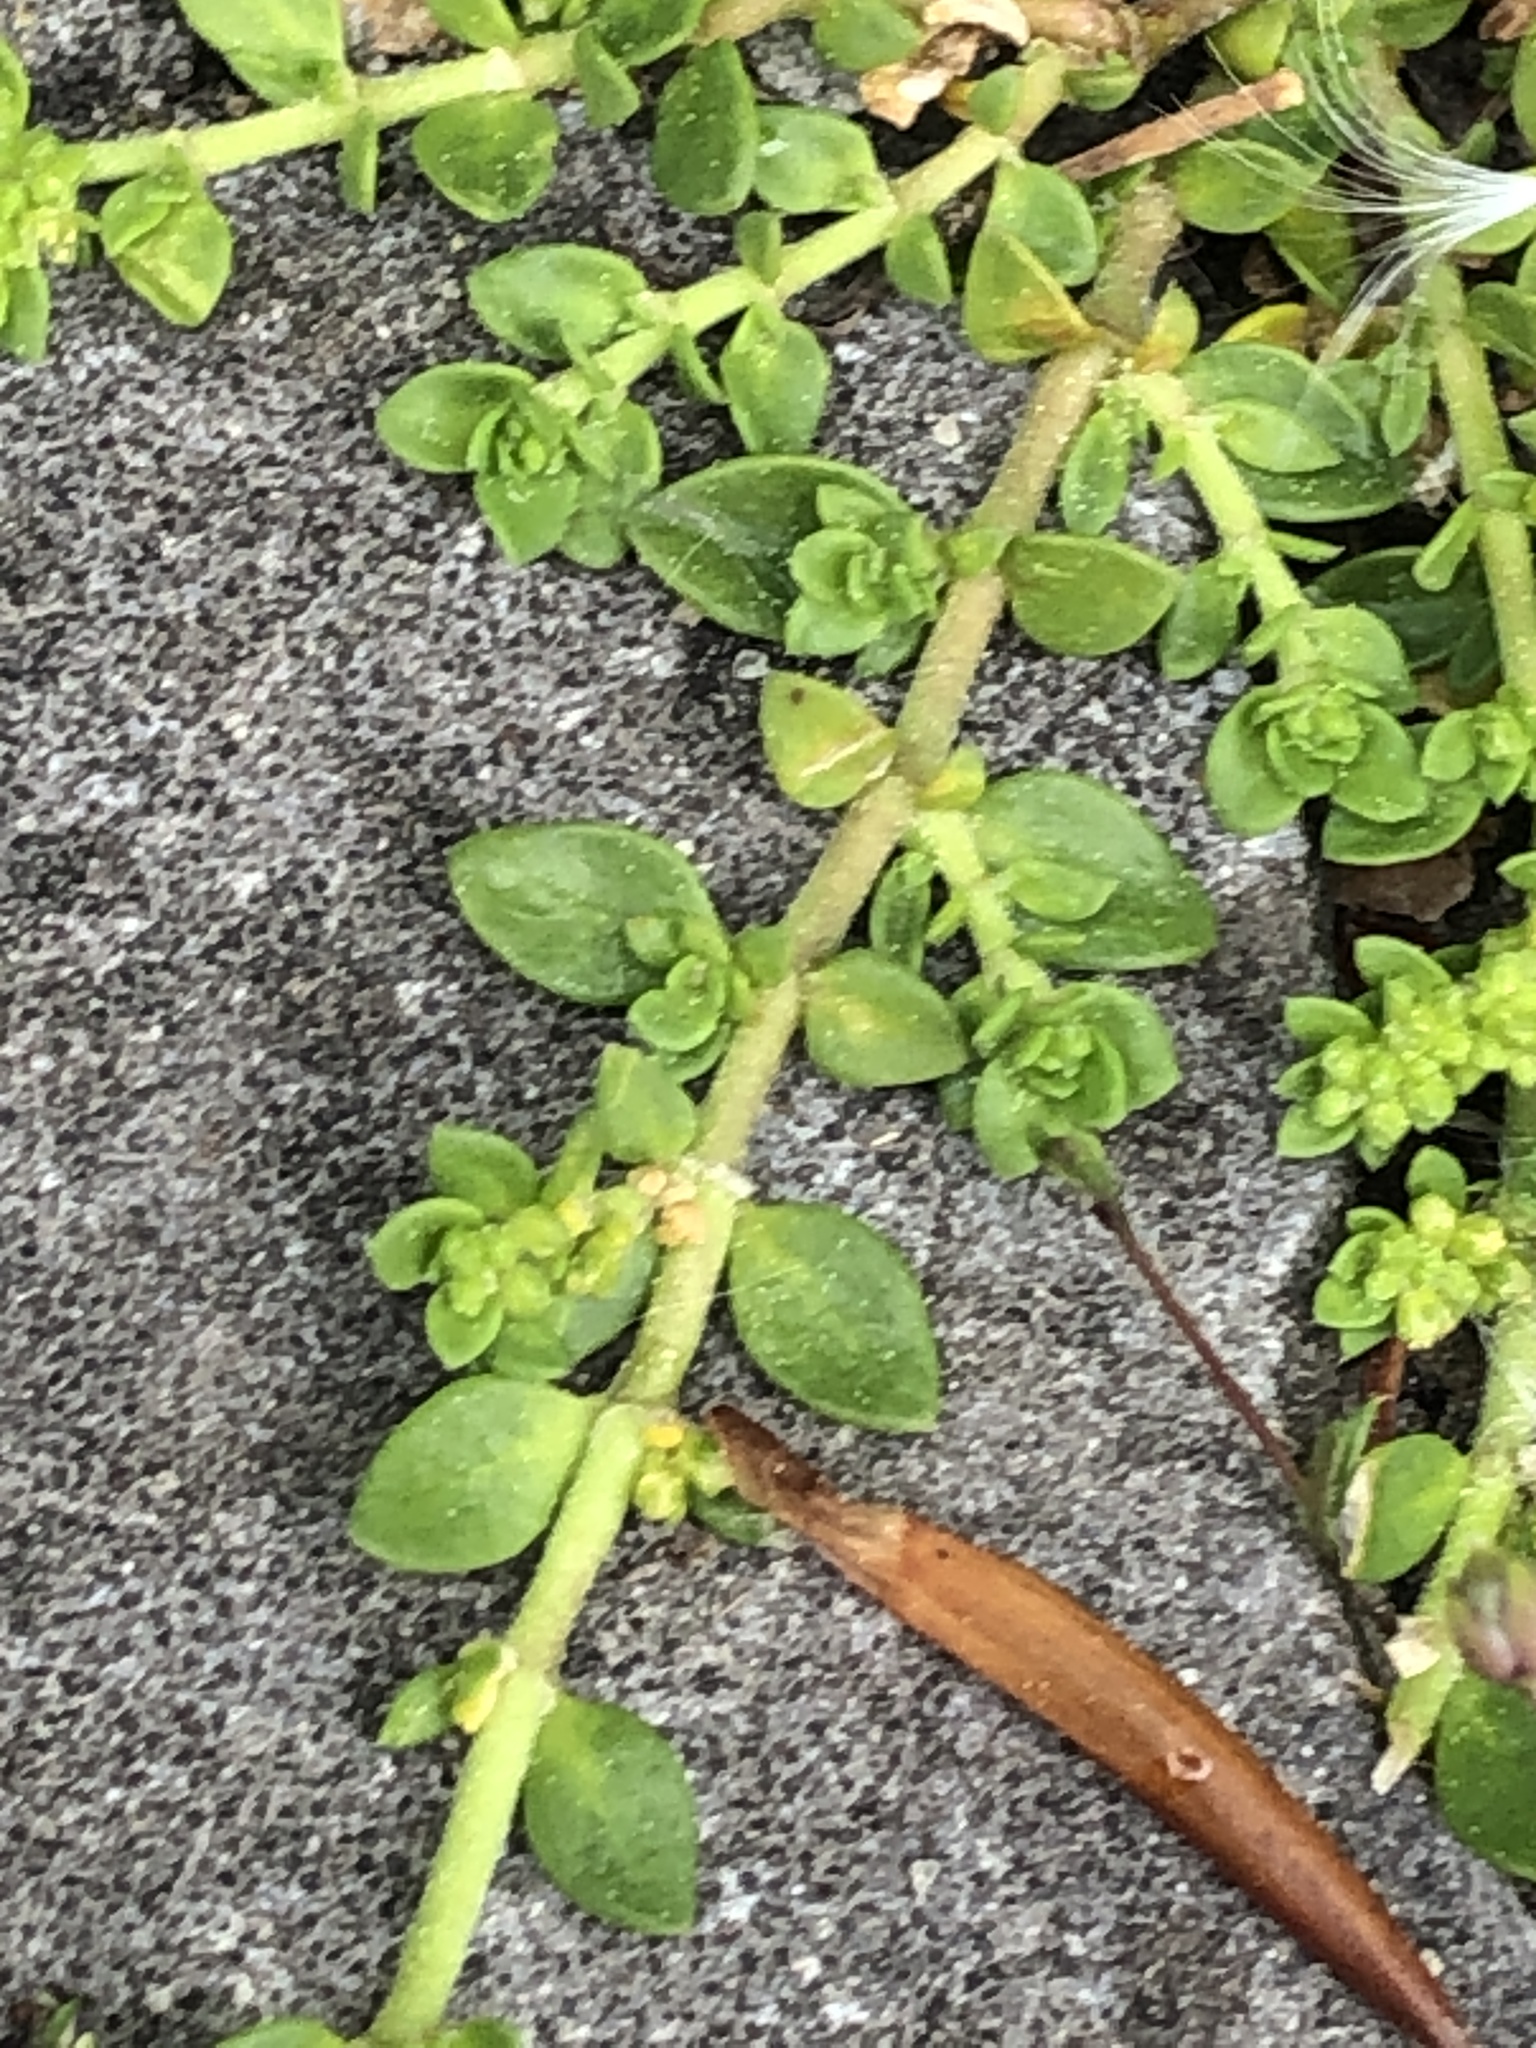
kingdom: Plantae
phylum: Tracheophyta
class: Magnoliopsida
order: Caryophyllales
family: Caryophyllaceae
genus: Herniaria
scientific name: Herniaria glabra
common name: Smooth rupturewort
